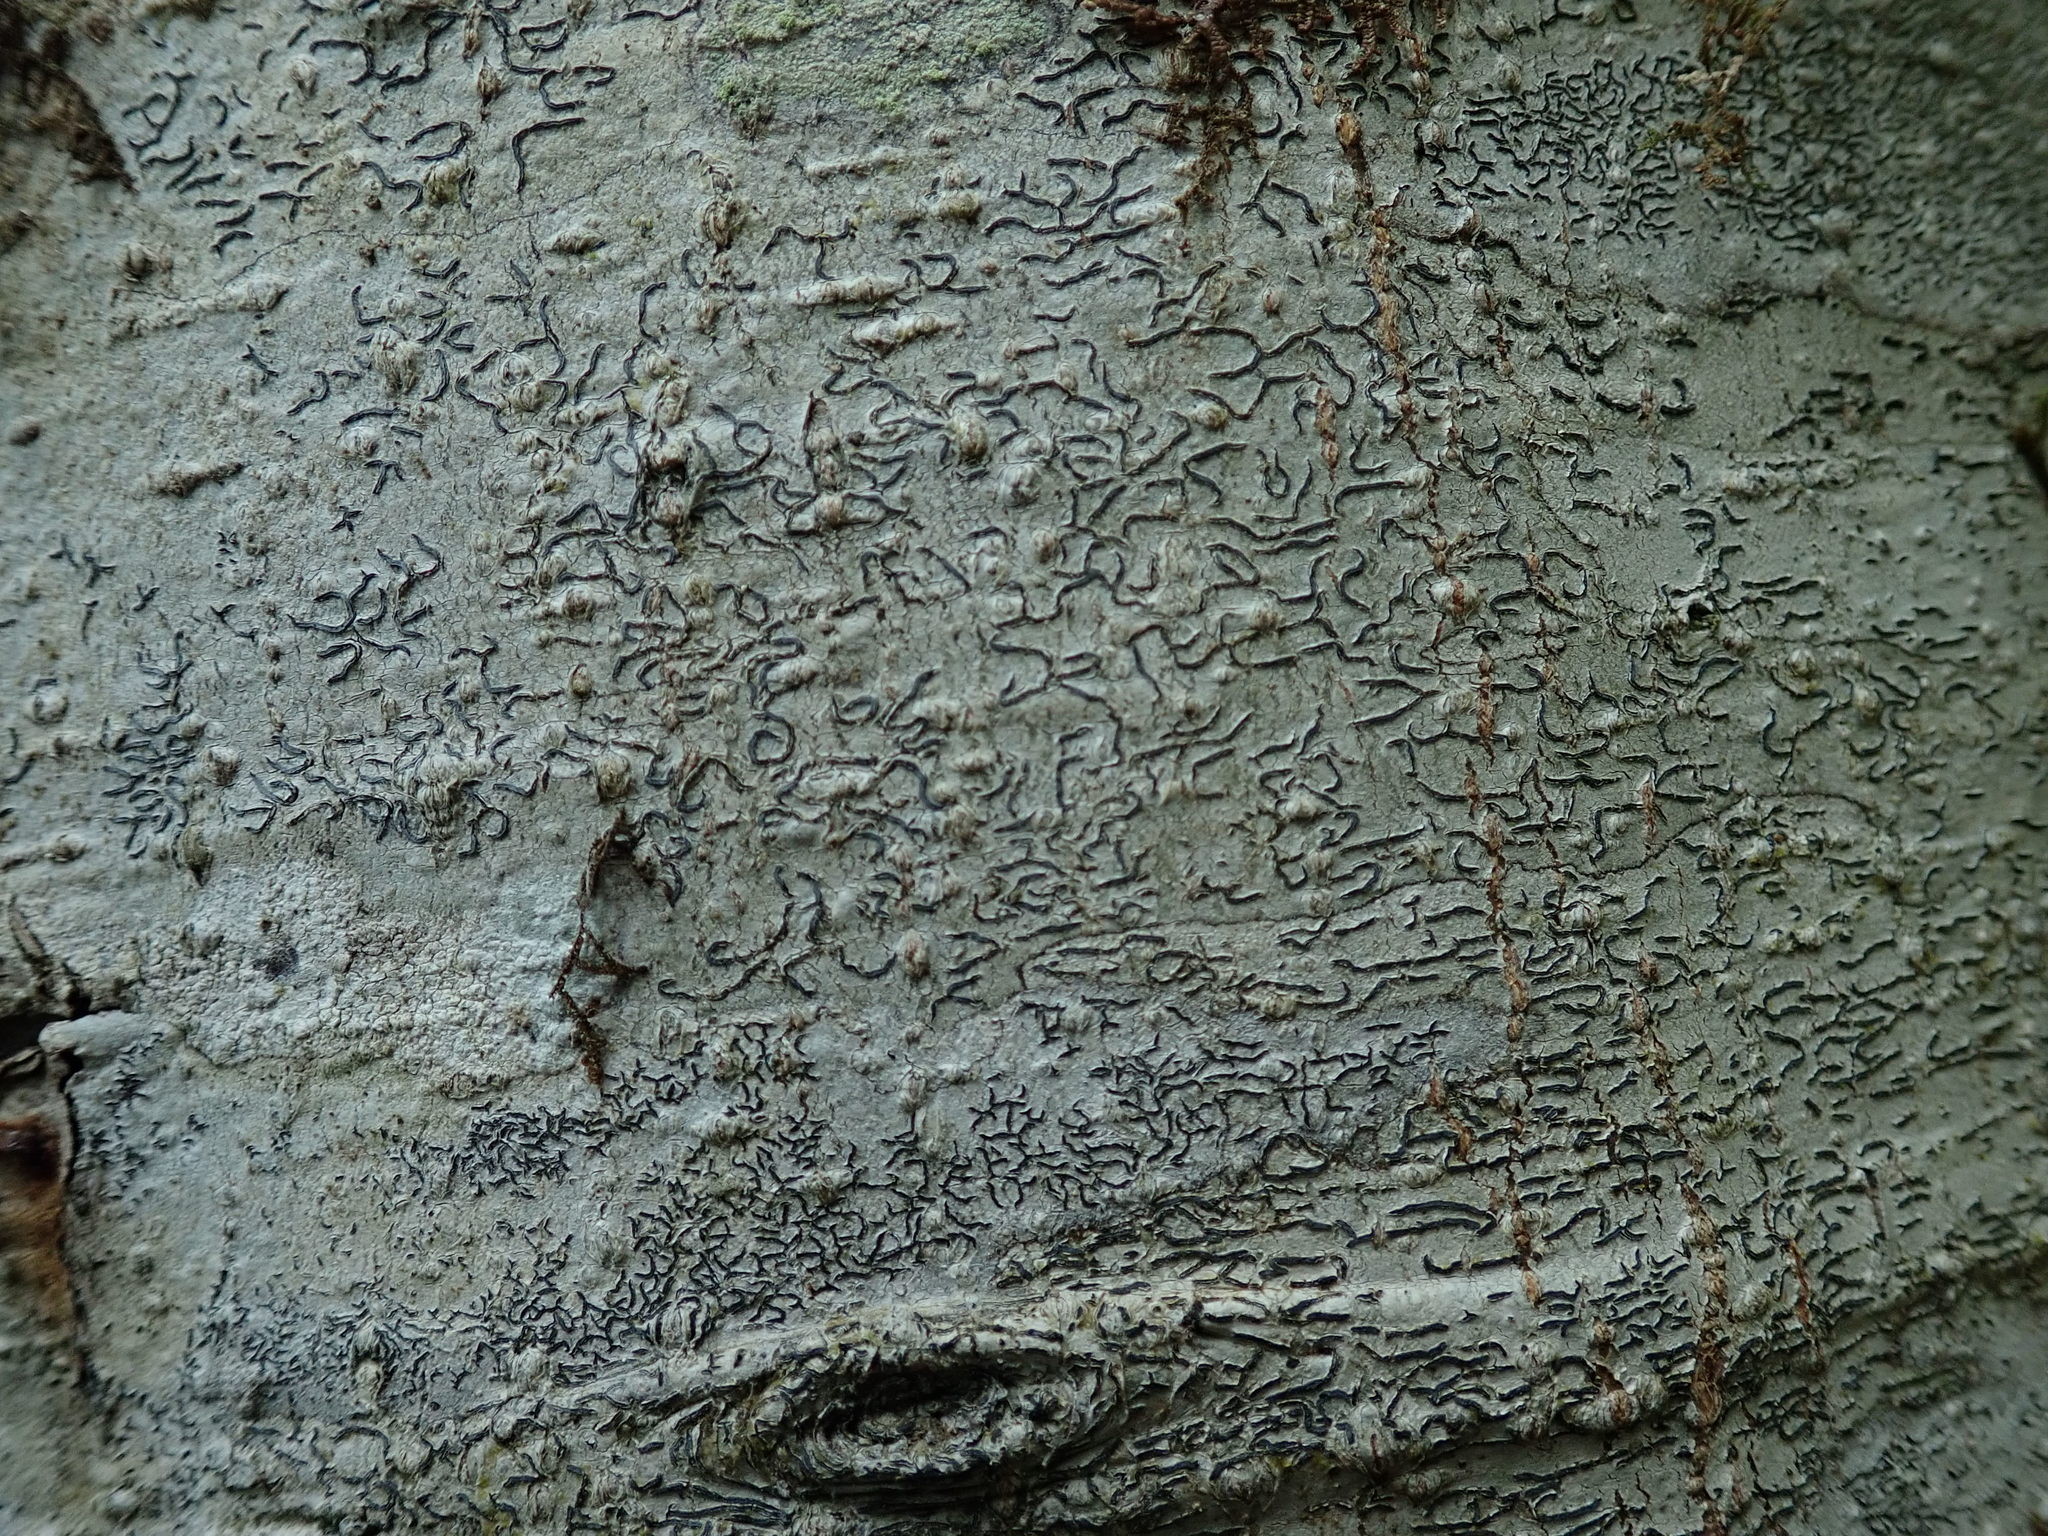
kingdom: Fungi
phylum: Ascomycota
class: Lecanoromycetes
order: Ostropales
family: Graphidaceae
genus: Graphis
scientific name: Graphis scripta
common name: Script lichen
